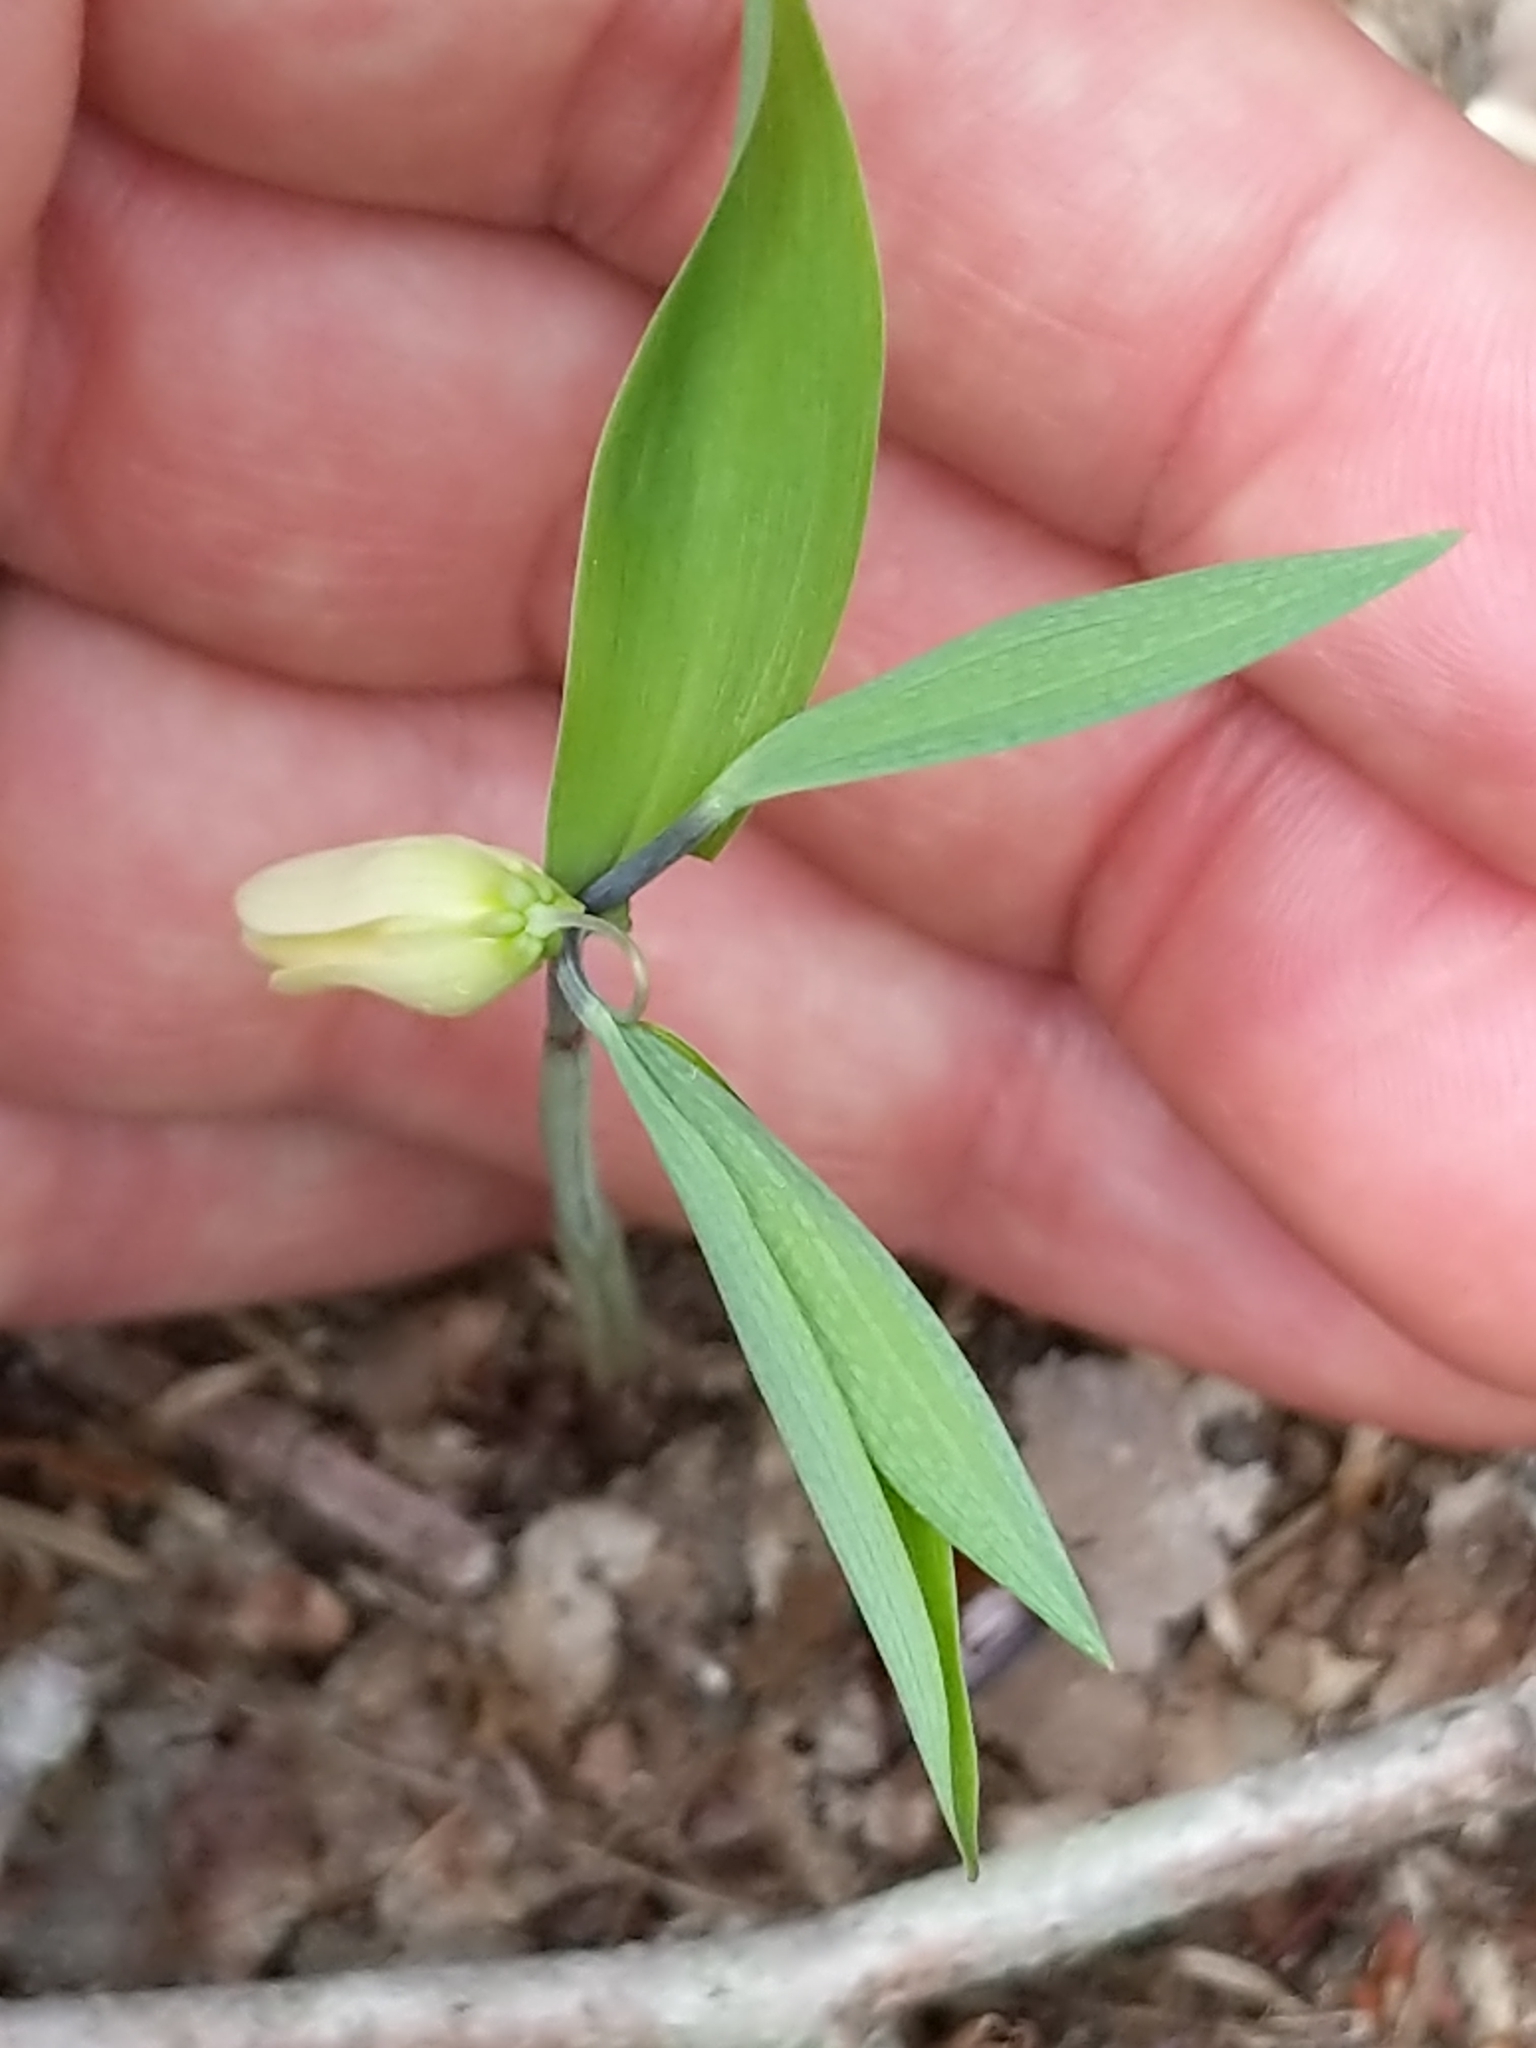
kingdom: Plantae
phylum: Tracheophyta
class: Liliopsida
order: Liliales
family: Colchicaceae
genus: Uvularia
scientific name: Uvularia sessilifolia
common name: Straw-lily
